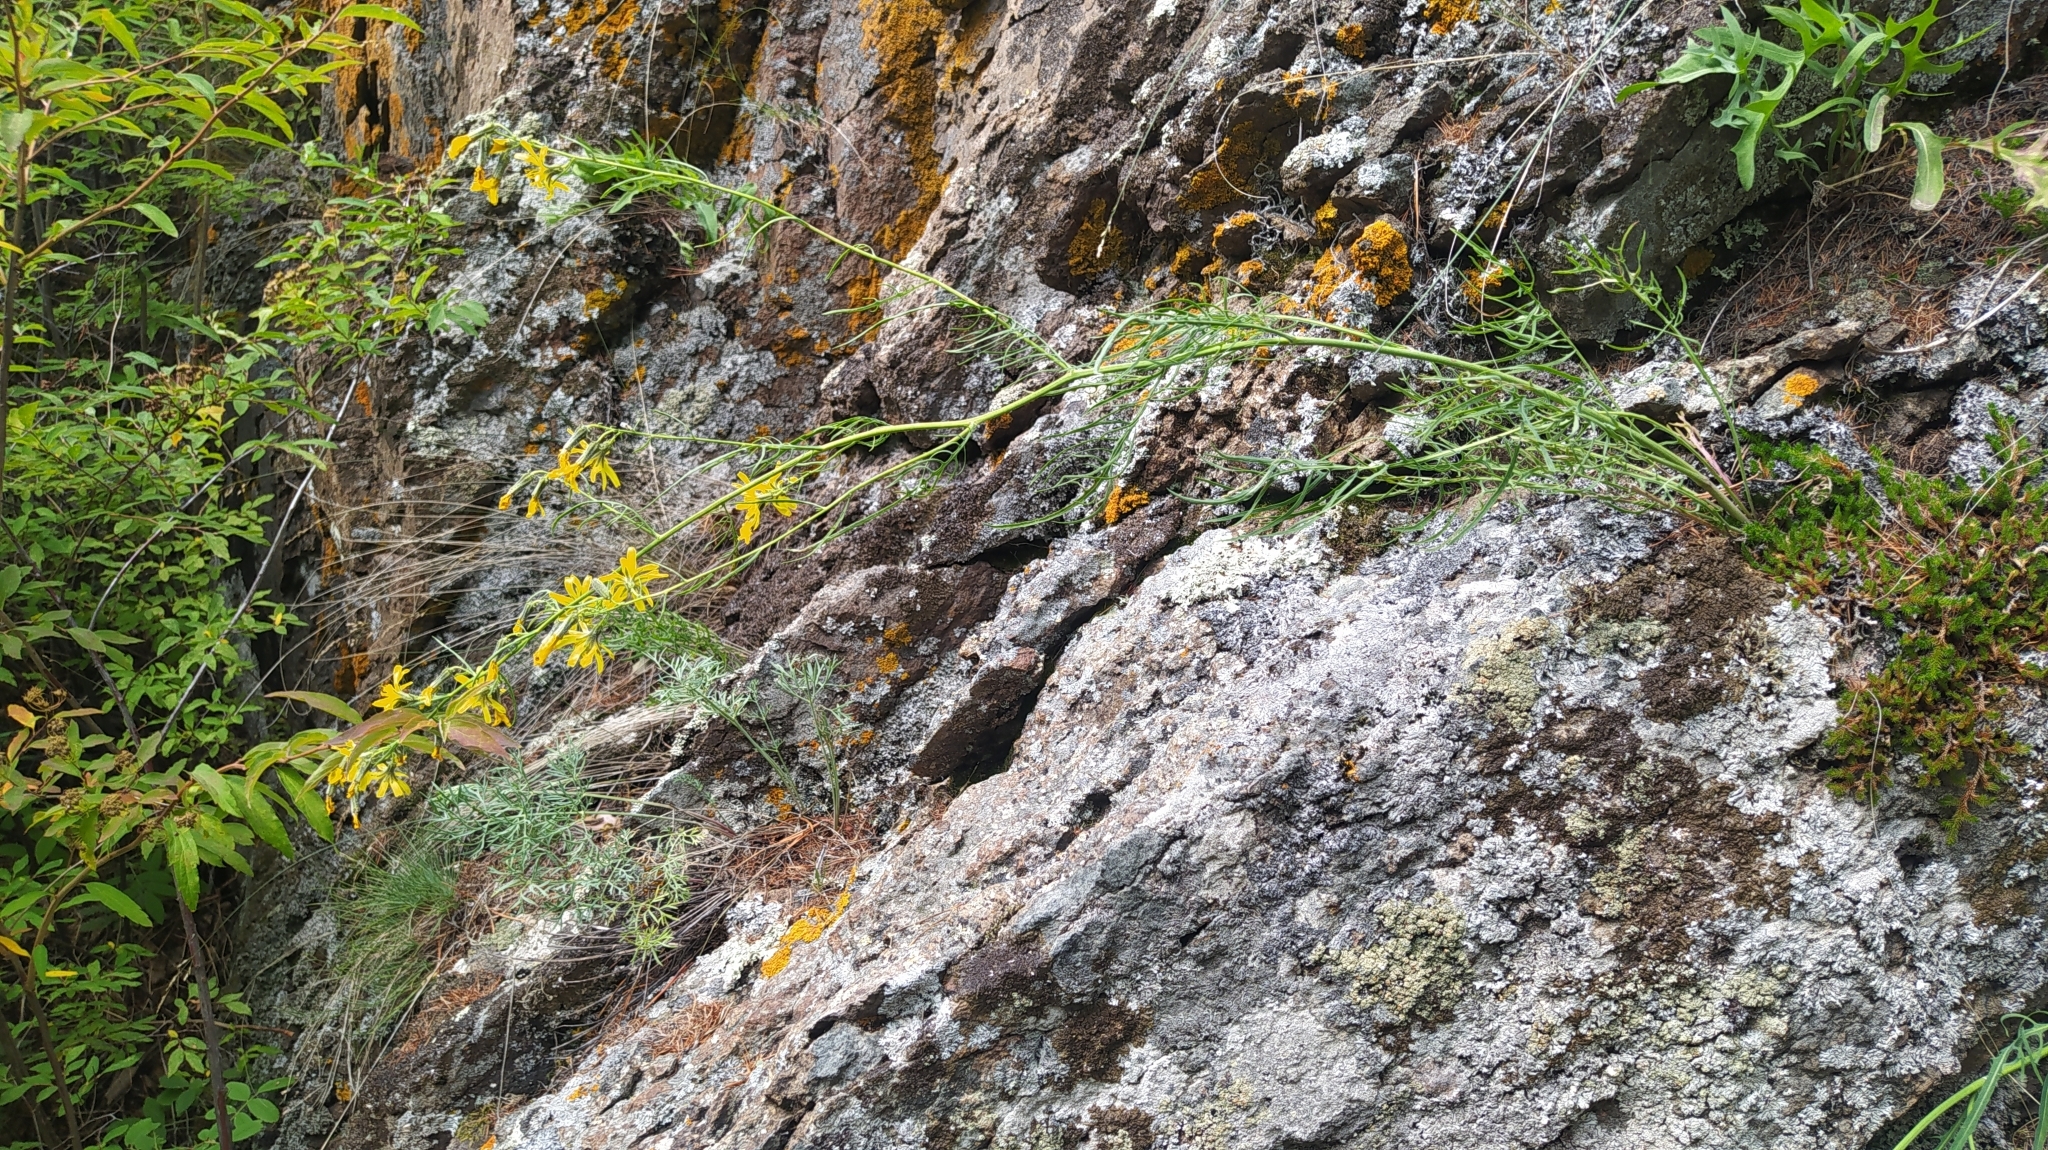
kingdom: Plantae
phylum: Tracheophyta
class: Magnoliopsida
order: Asterales
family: Asteraceae
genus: Crepidiastrum
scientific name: Crepidiastrum tenuifolium
